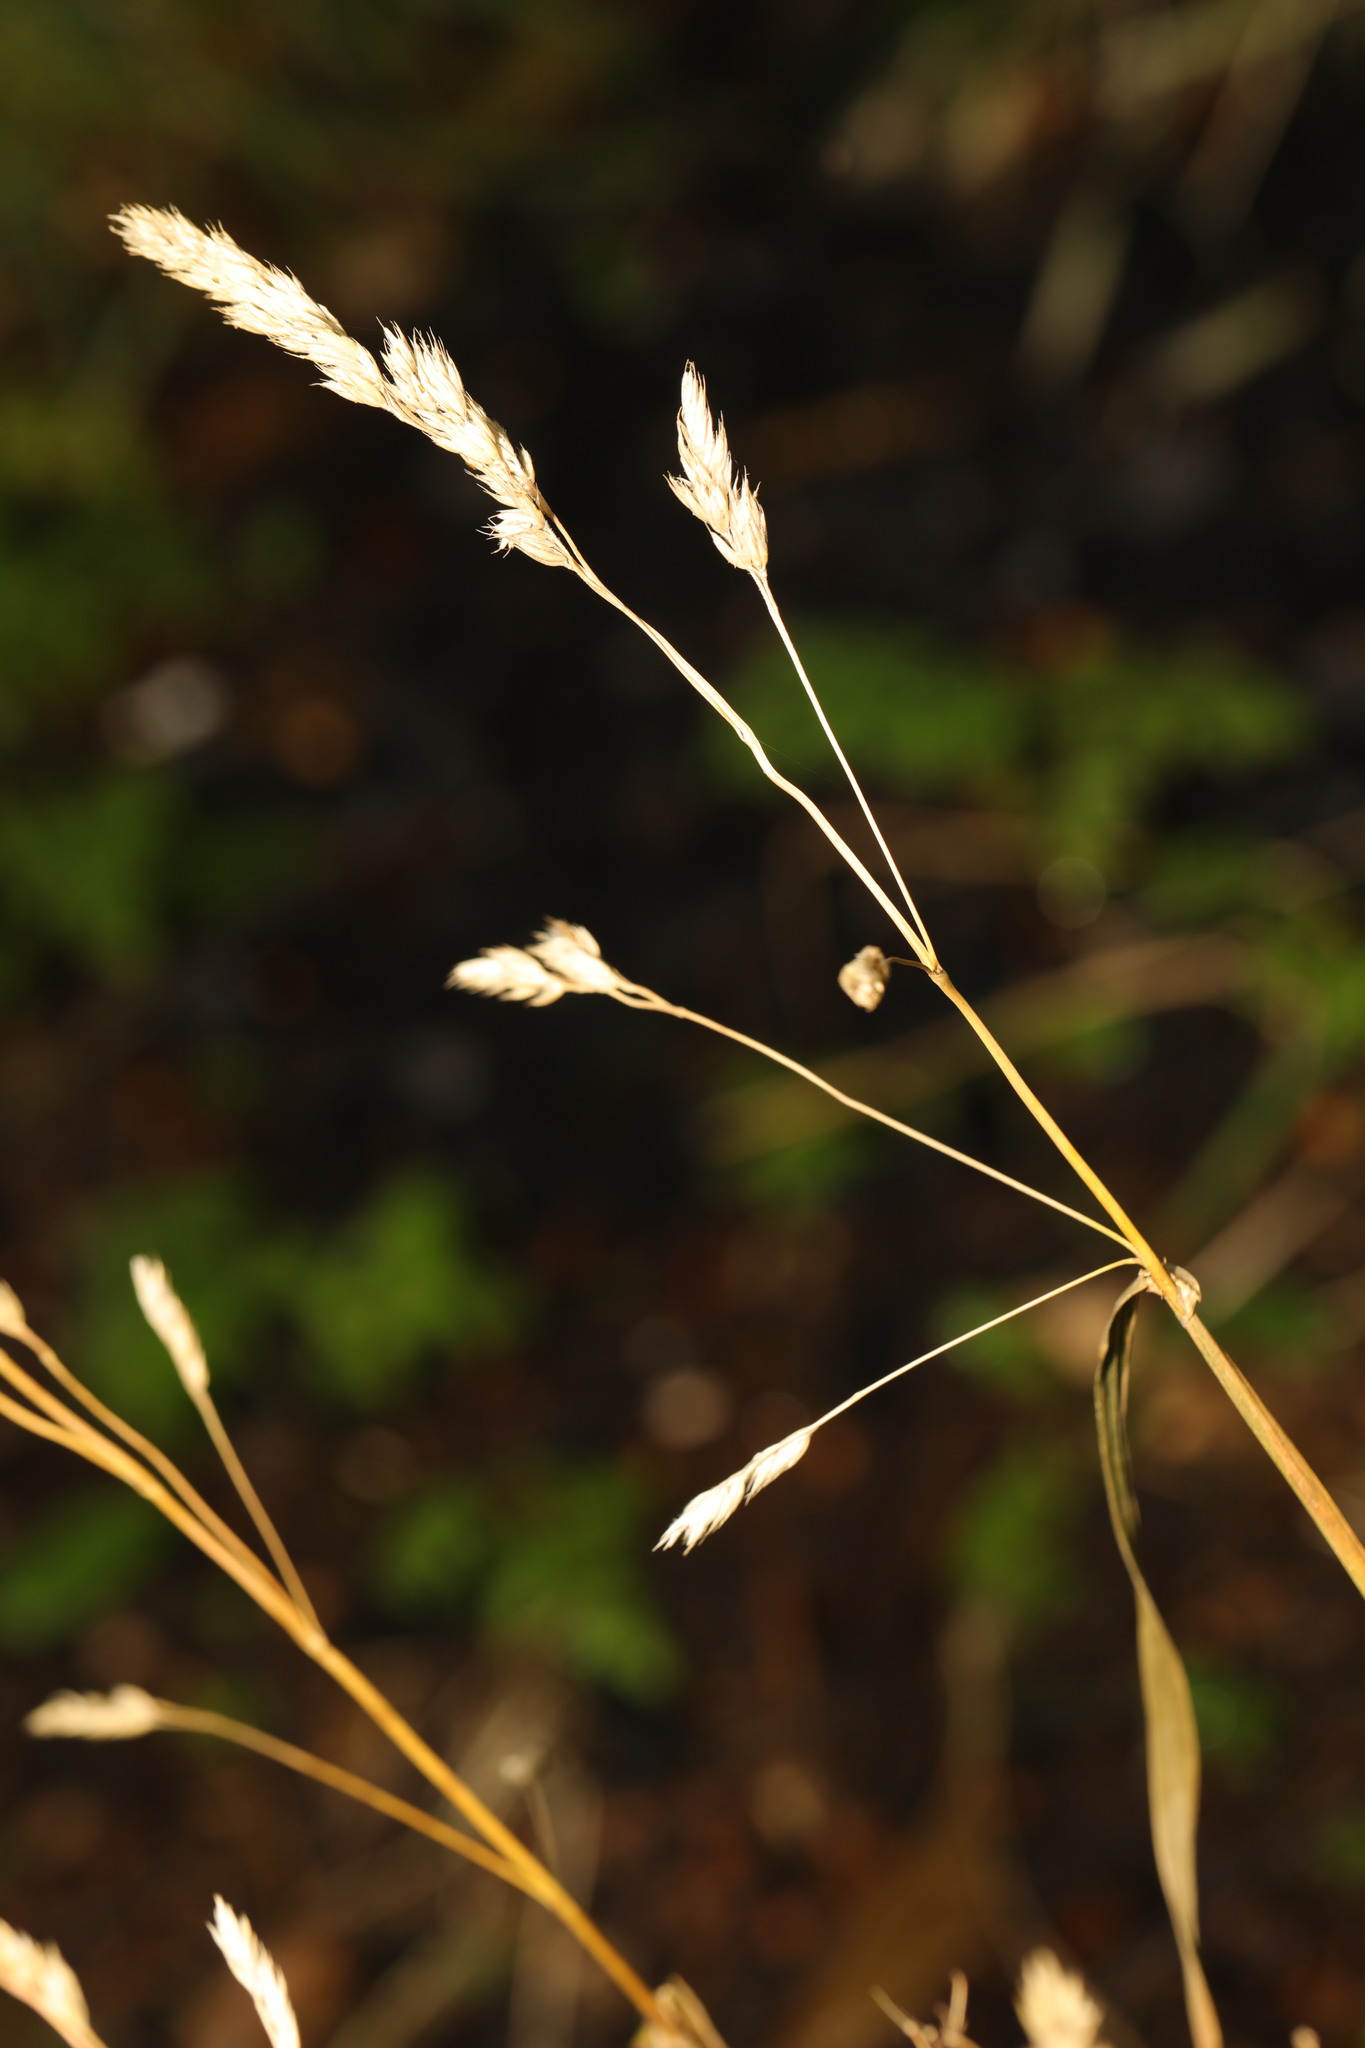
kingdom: Plantae
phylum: Tracheophyta
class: Liliopsida
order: Poales
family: Poaceae
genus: Dactylis
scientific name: Dactylis glomerata
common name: Orchardgrass
